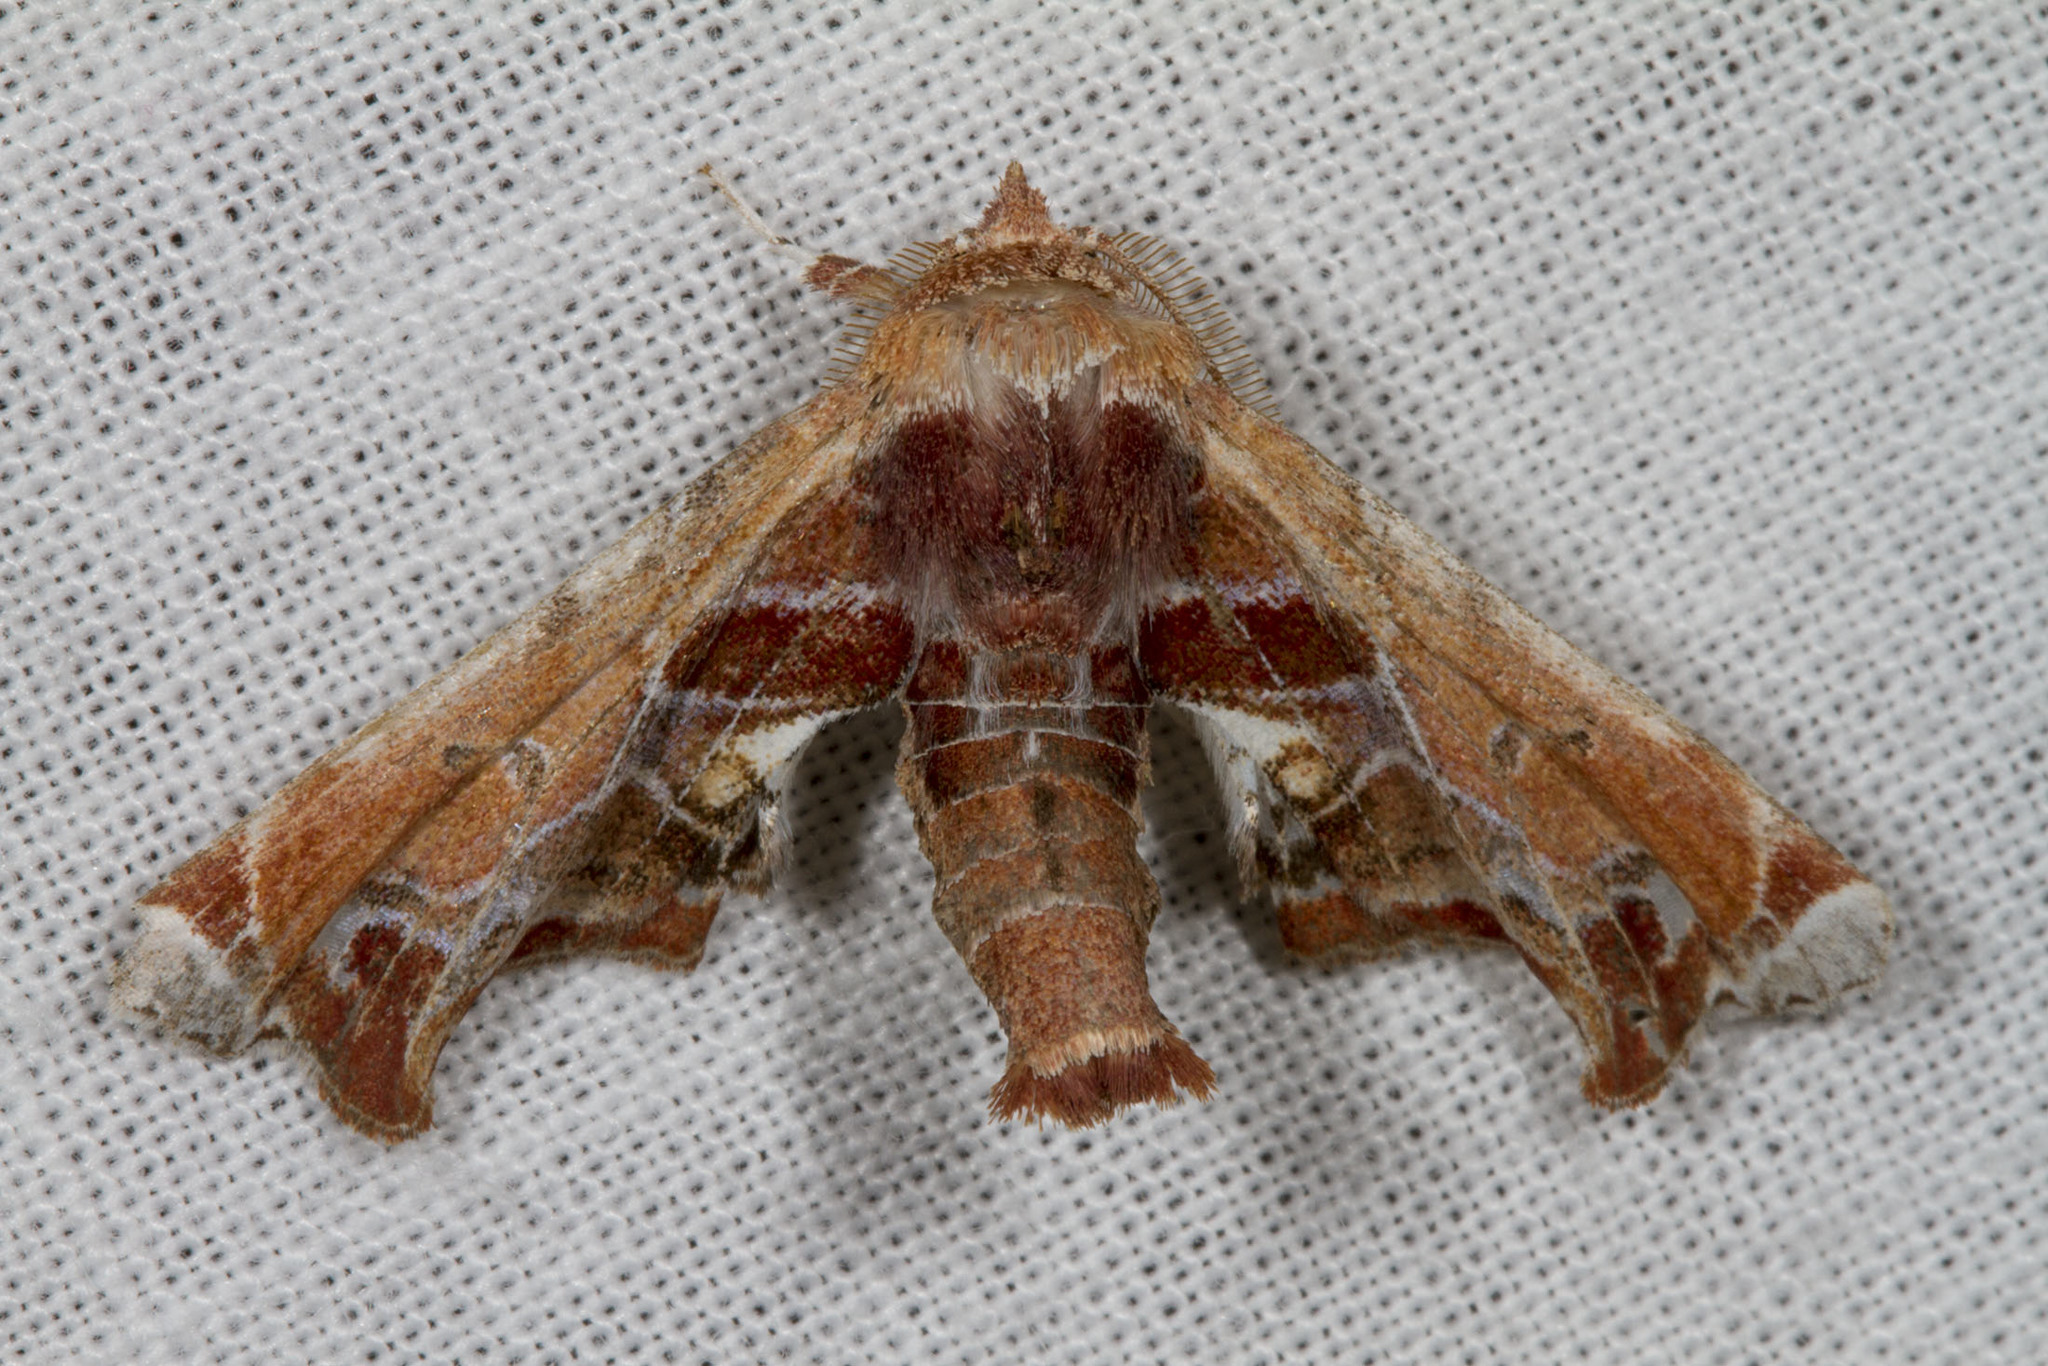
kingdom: Animalia
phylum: Arthropoda
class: Insecta
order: Lepidoptera
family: Euteliidae
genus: Eutelia
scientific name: Eutelia pulcherrimus
